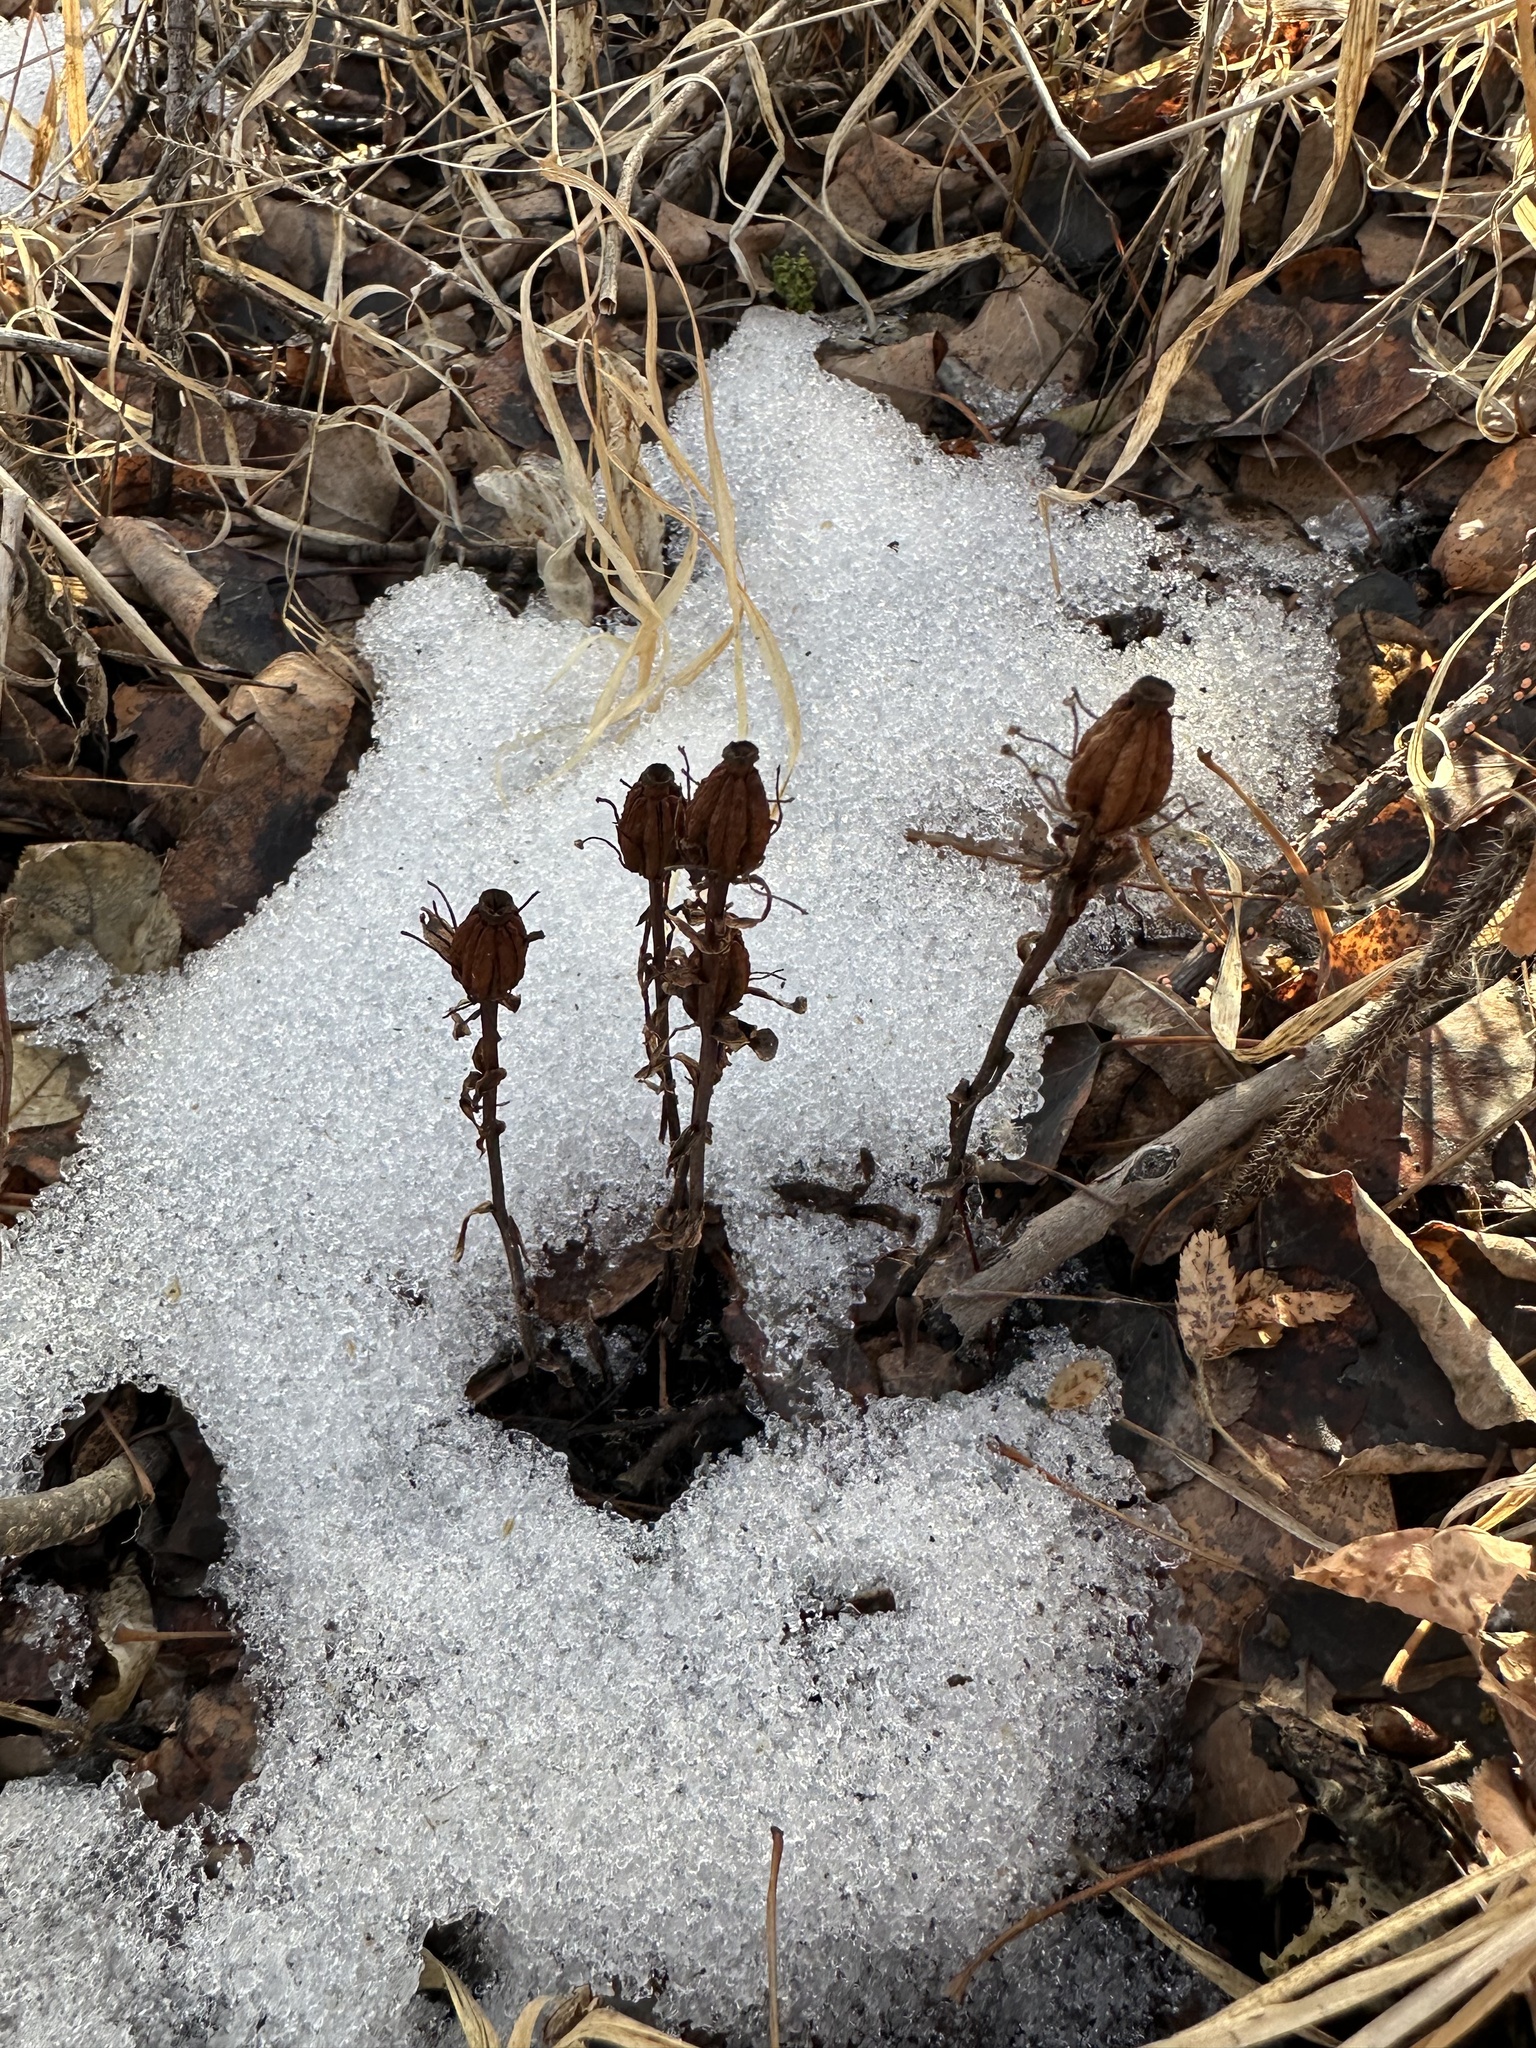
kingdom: Plantae
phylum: Tracheophyta
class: Magnoliopsida
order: Ericales
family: Ericaceae
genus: Monotropa
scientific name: Monotropa uniflora
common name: Convulsion root
